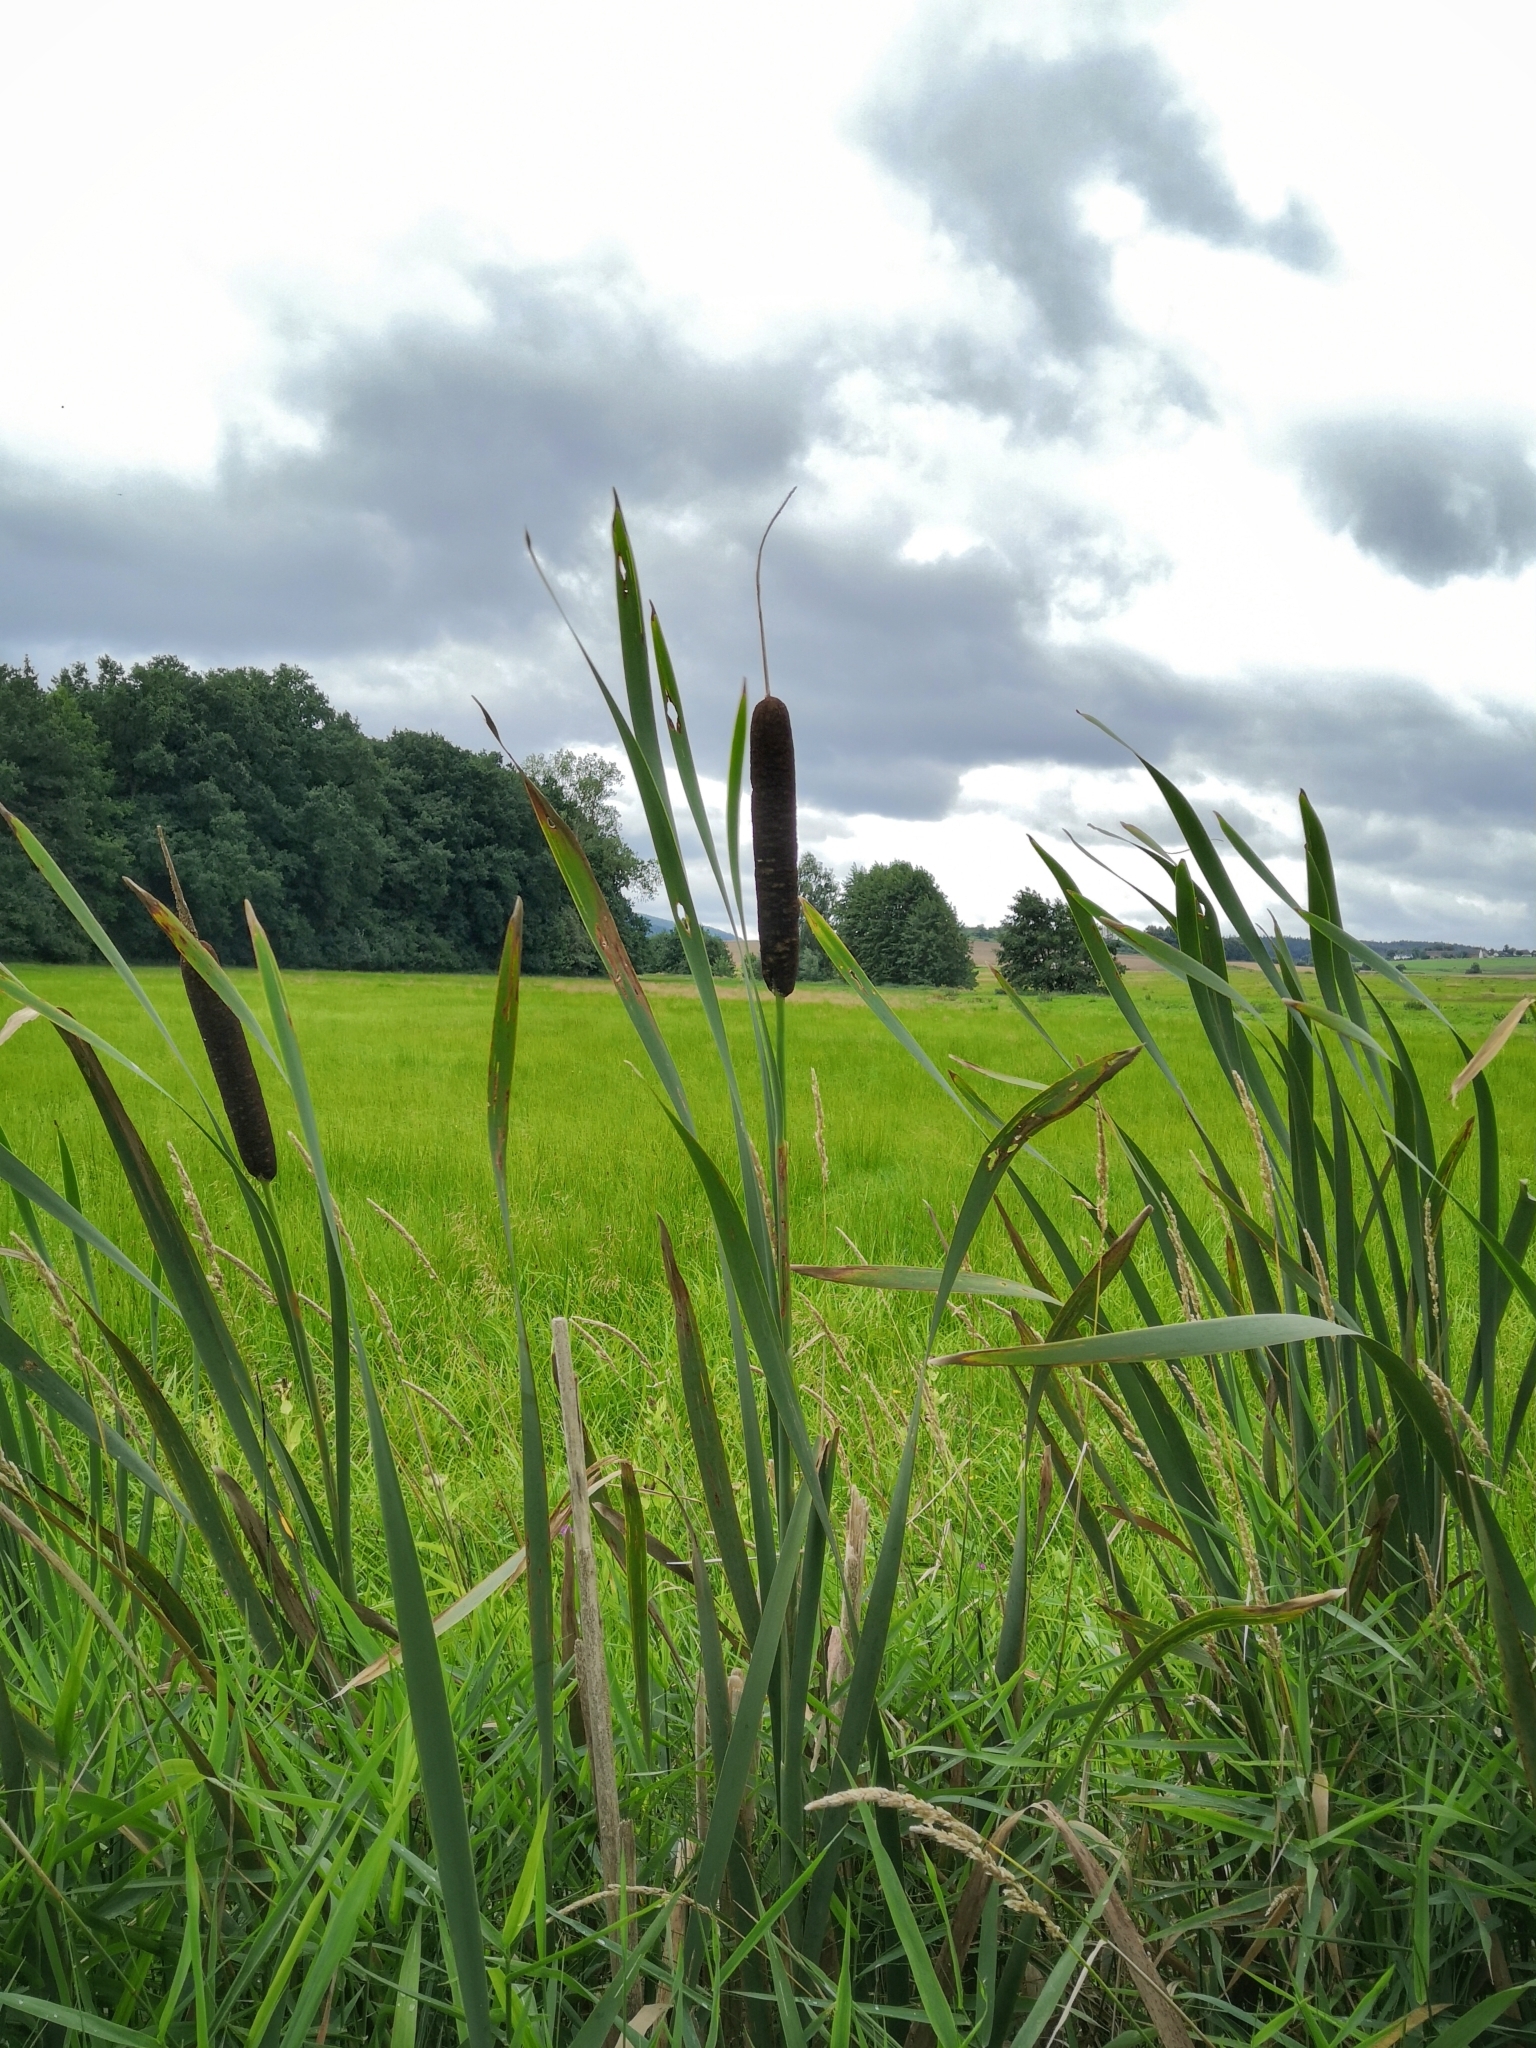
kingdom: Plantae
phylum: Tracheophyta
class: Liliopsida
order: Poales
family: Typhaceae
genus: Typha
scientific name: Typha latifolia
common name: Broadleaf cattail
